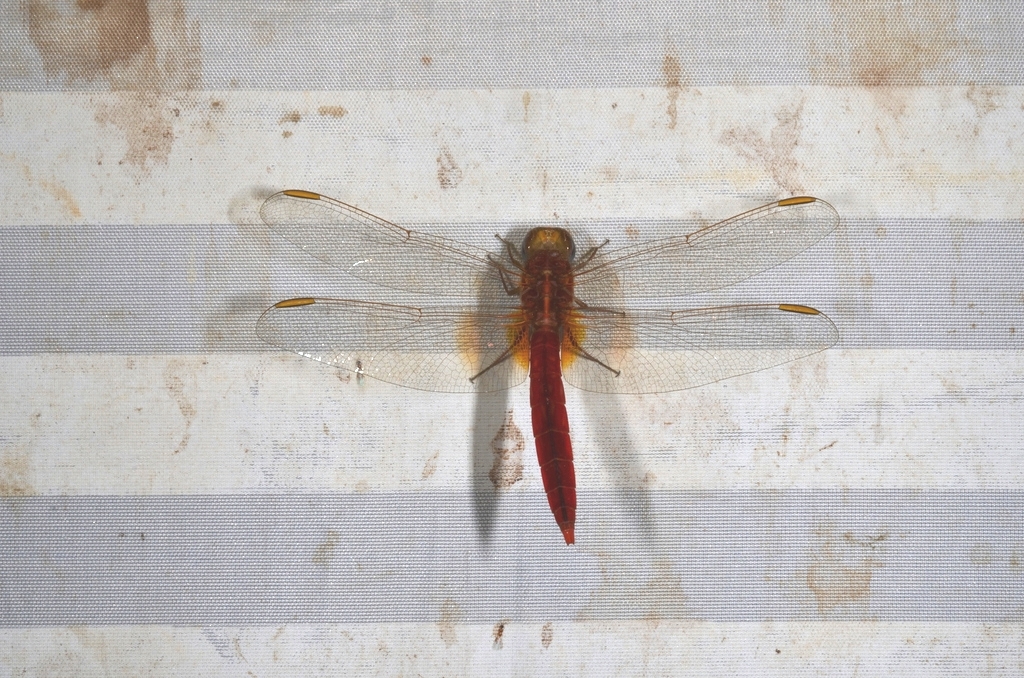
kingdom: Animalia
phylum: Arthropoda
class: Insecta
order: Odonata
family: Libellulidae
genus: Crocothemis
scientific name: Crocothemis servilia
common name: Scarlet skimmer
